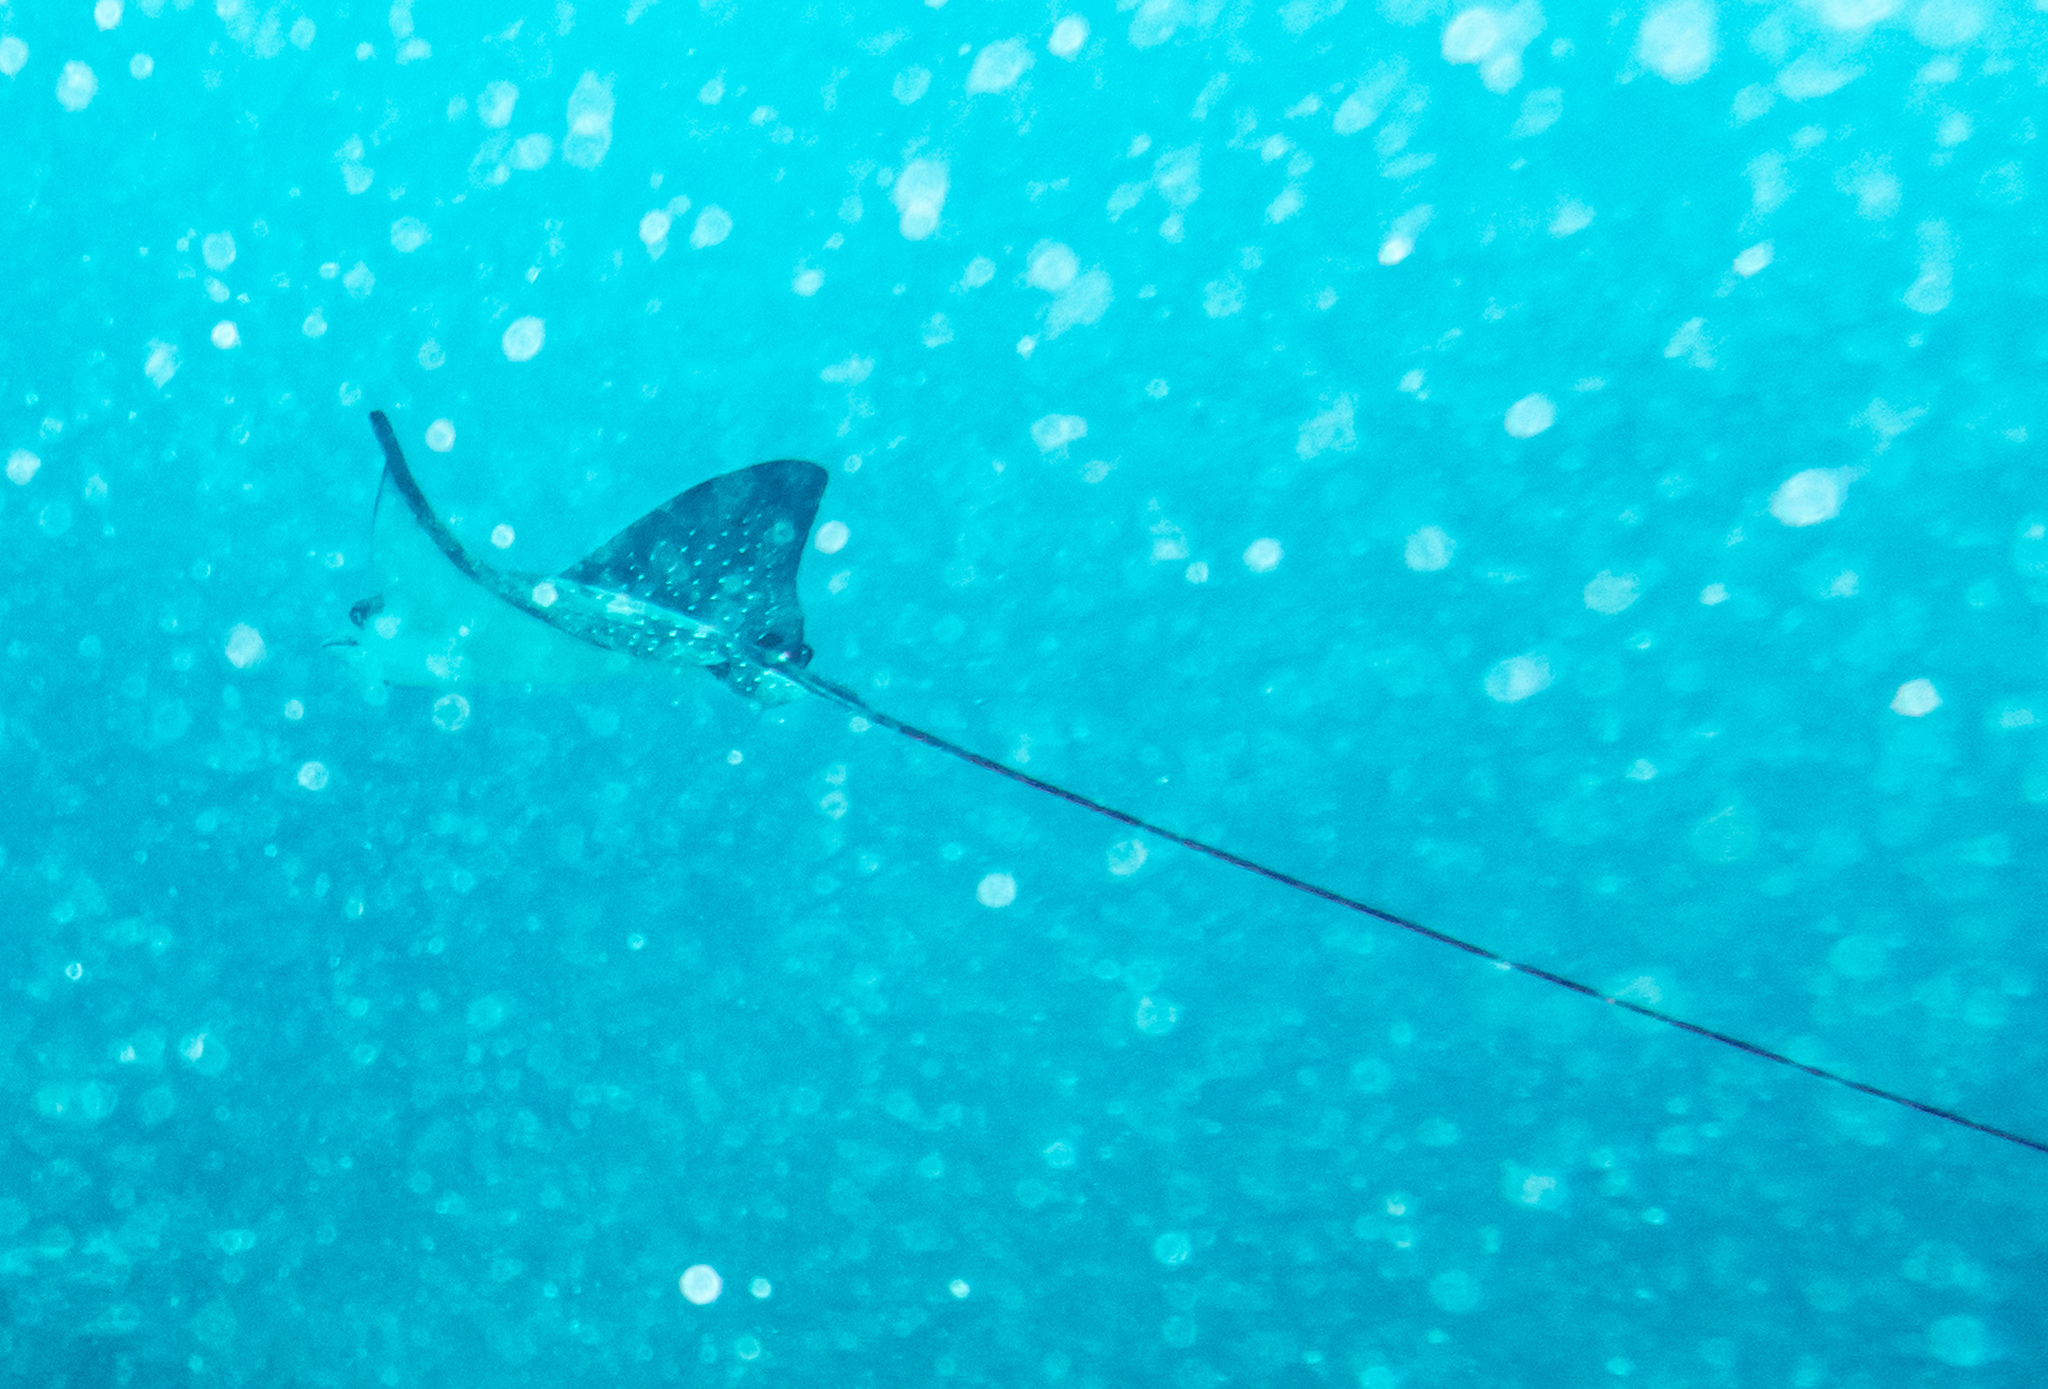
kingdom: Animalia
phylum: Chordata
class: Elasmobranchii
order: Myliobatiformes
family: Myliobatidae
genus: Aetobatus
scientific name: Aetobatus ocellatus
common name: Ocellated eagle ray
